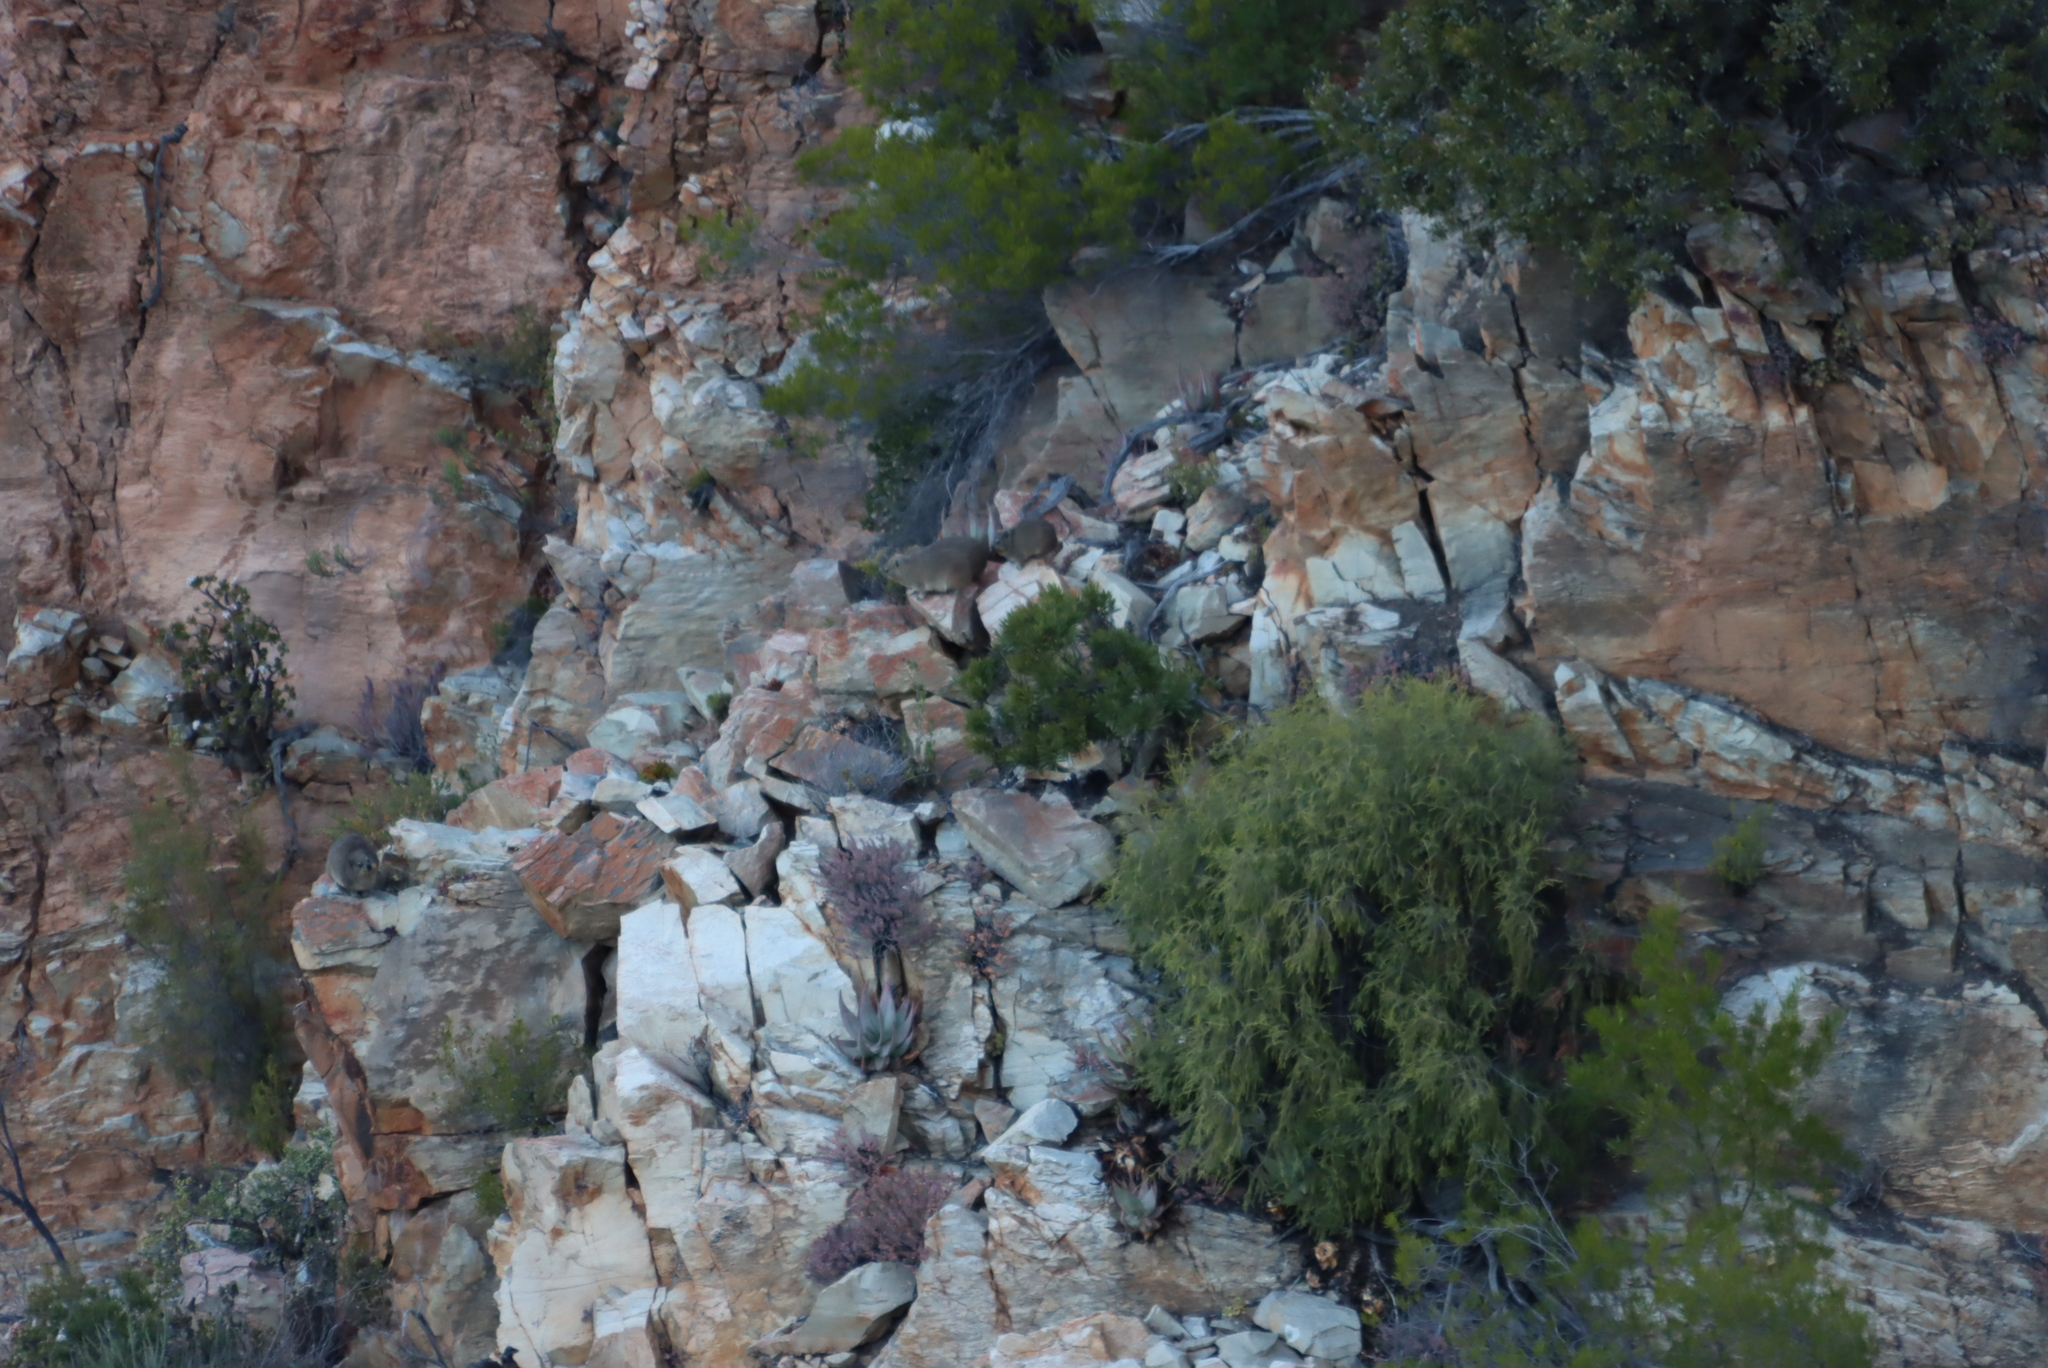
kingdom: Plantae
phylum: Tracheophyta
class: Liliopsida
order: Asparagales
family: Asphodelaceae
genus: Aloe
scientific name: Aloe comptonii
